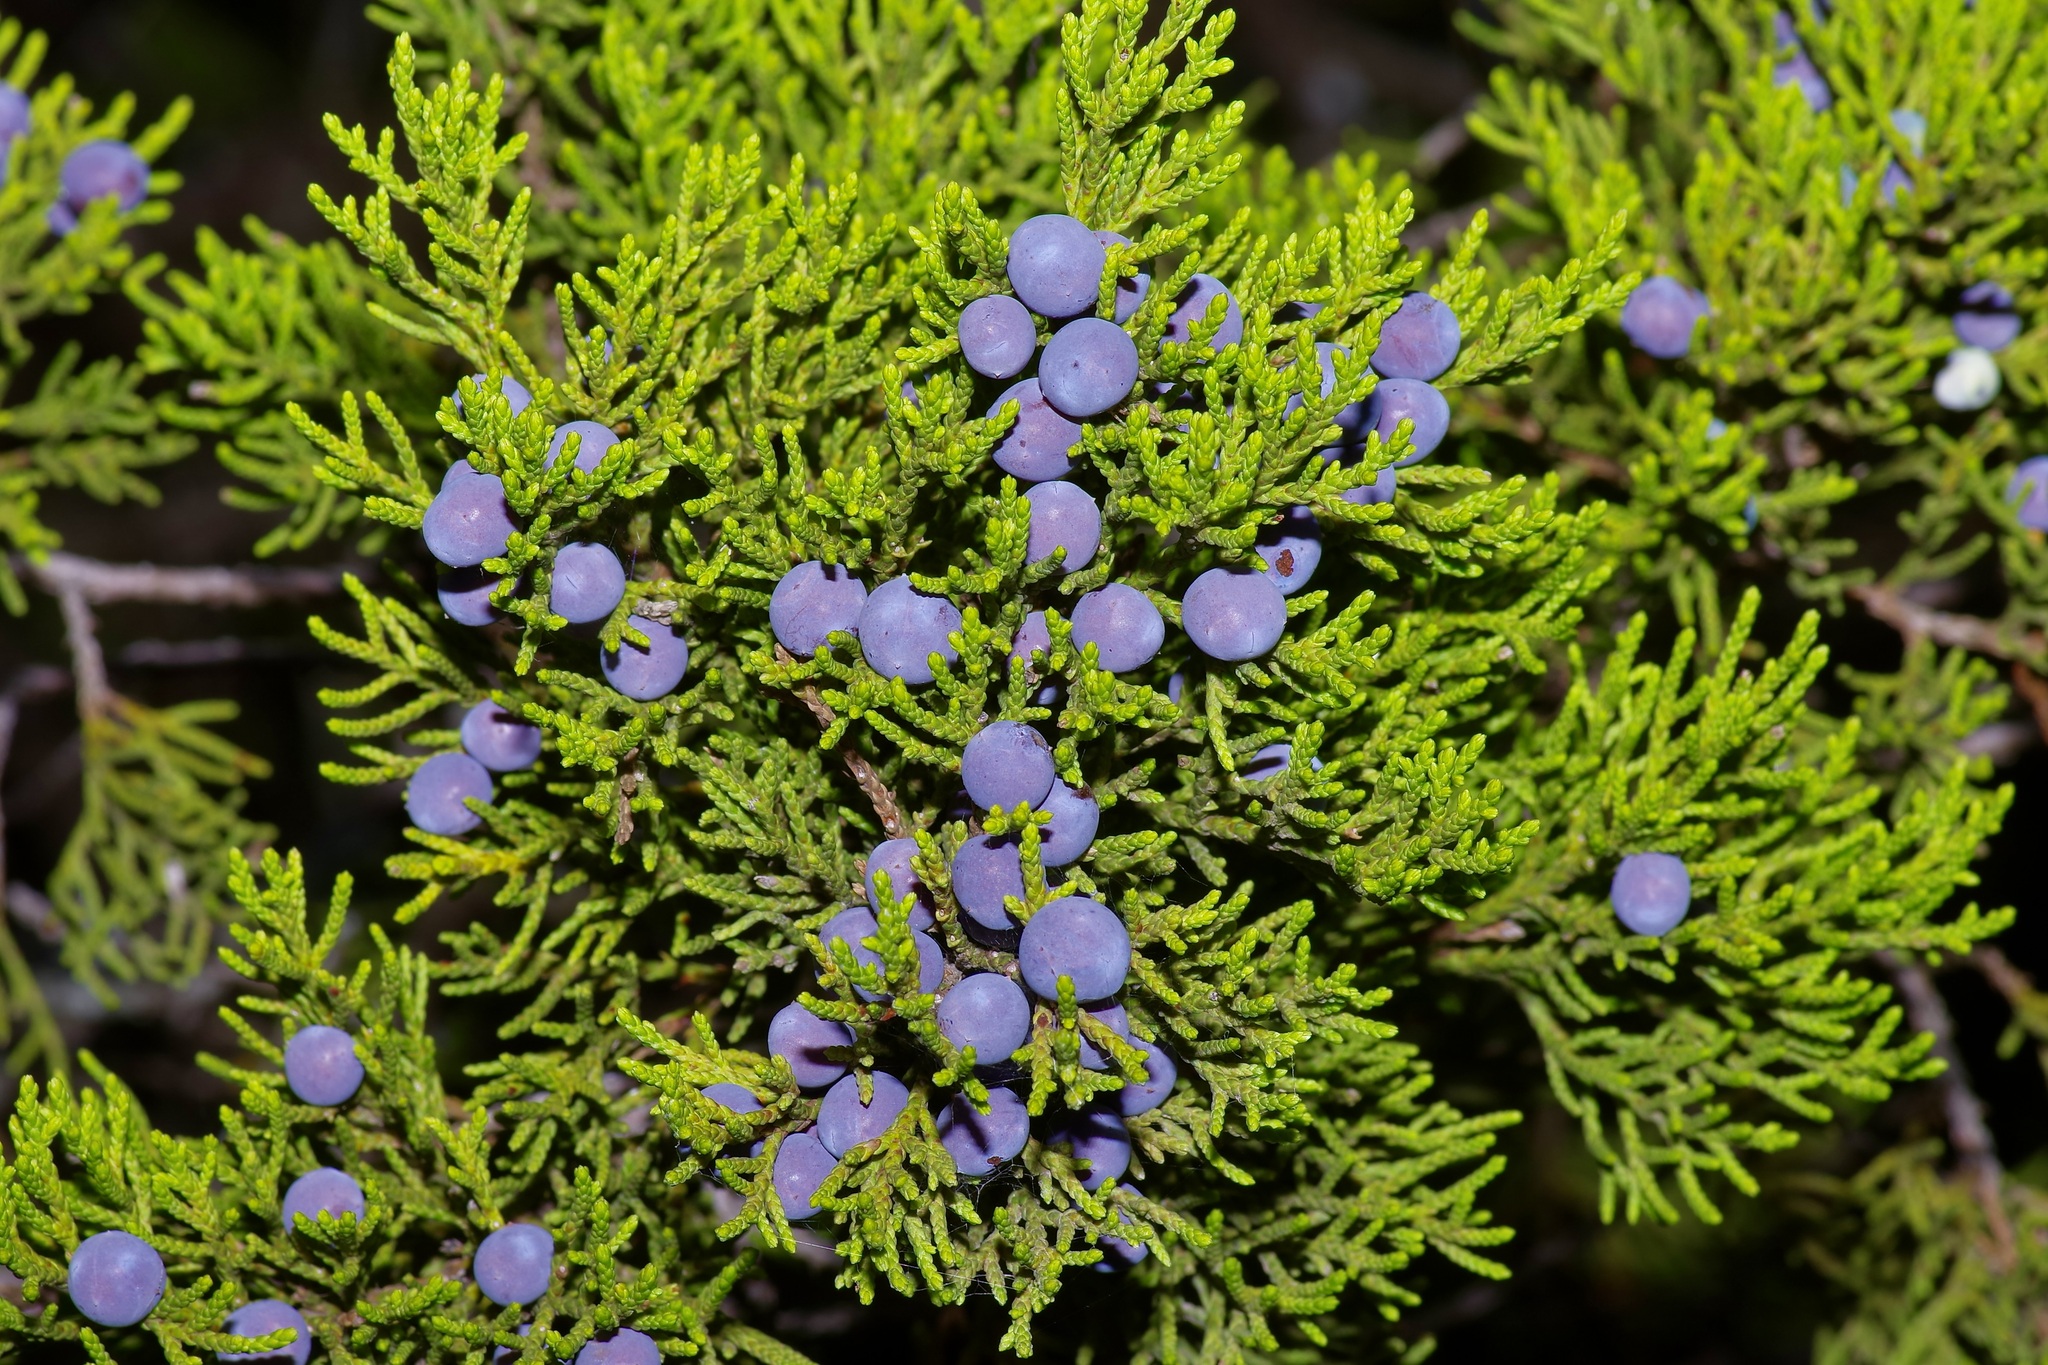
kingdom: Plantae
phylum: Tracheophyta
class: Pinopsida
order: Pinales
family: Cupressaceae
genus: Juniperus
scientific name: Juniperus ashei
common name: Mexican juniper
